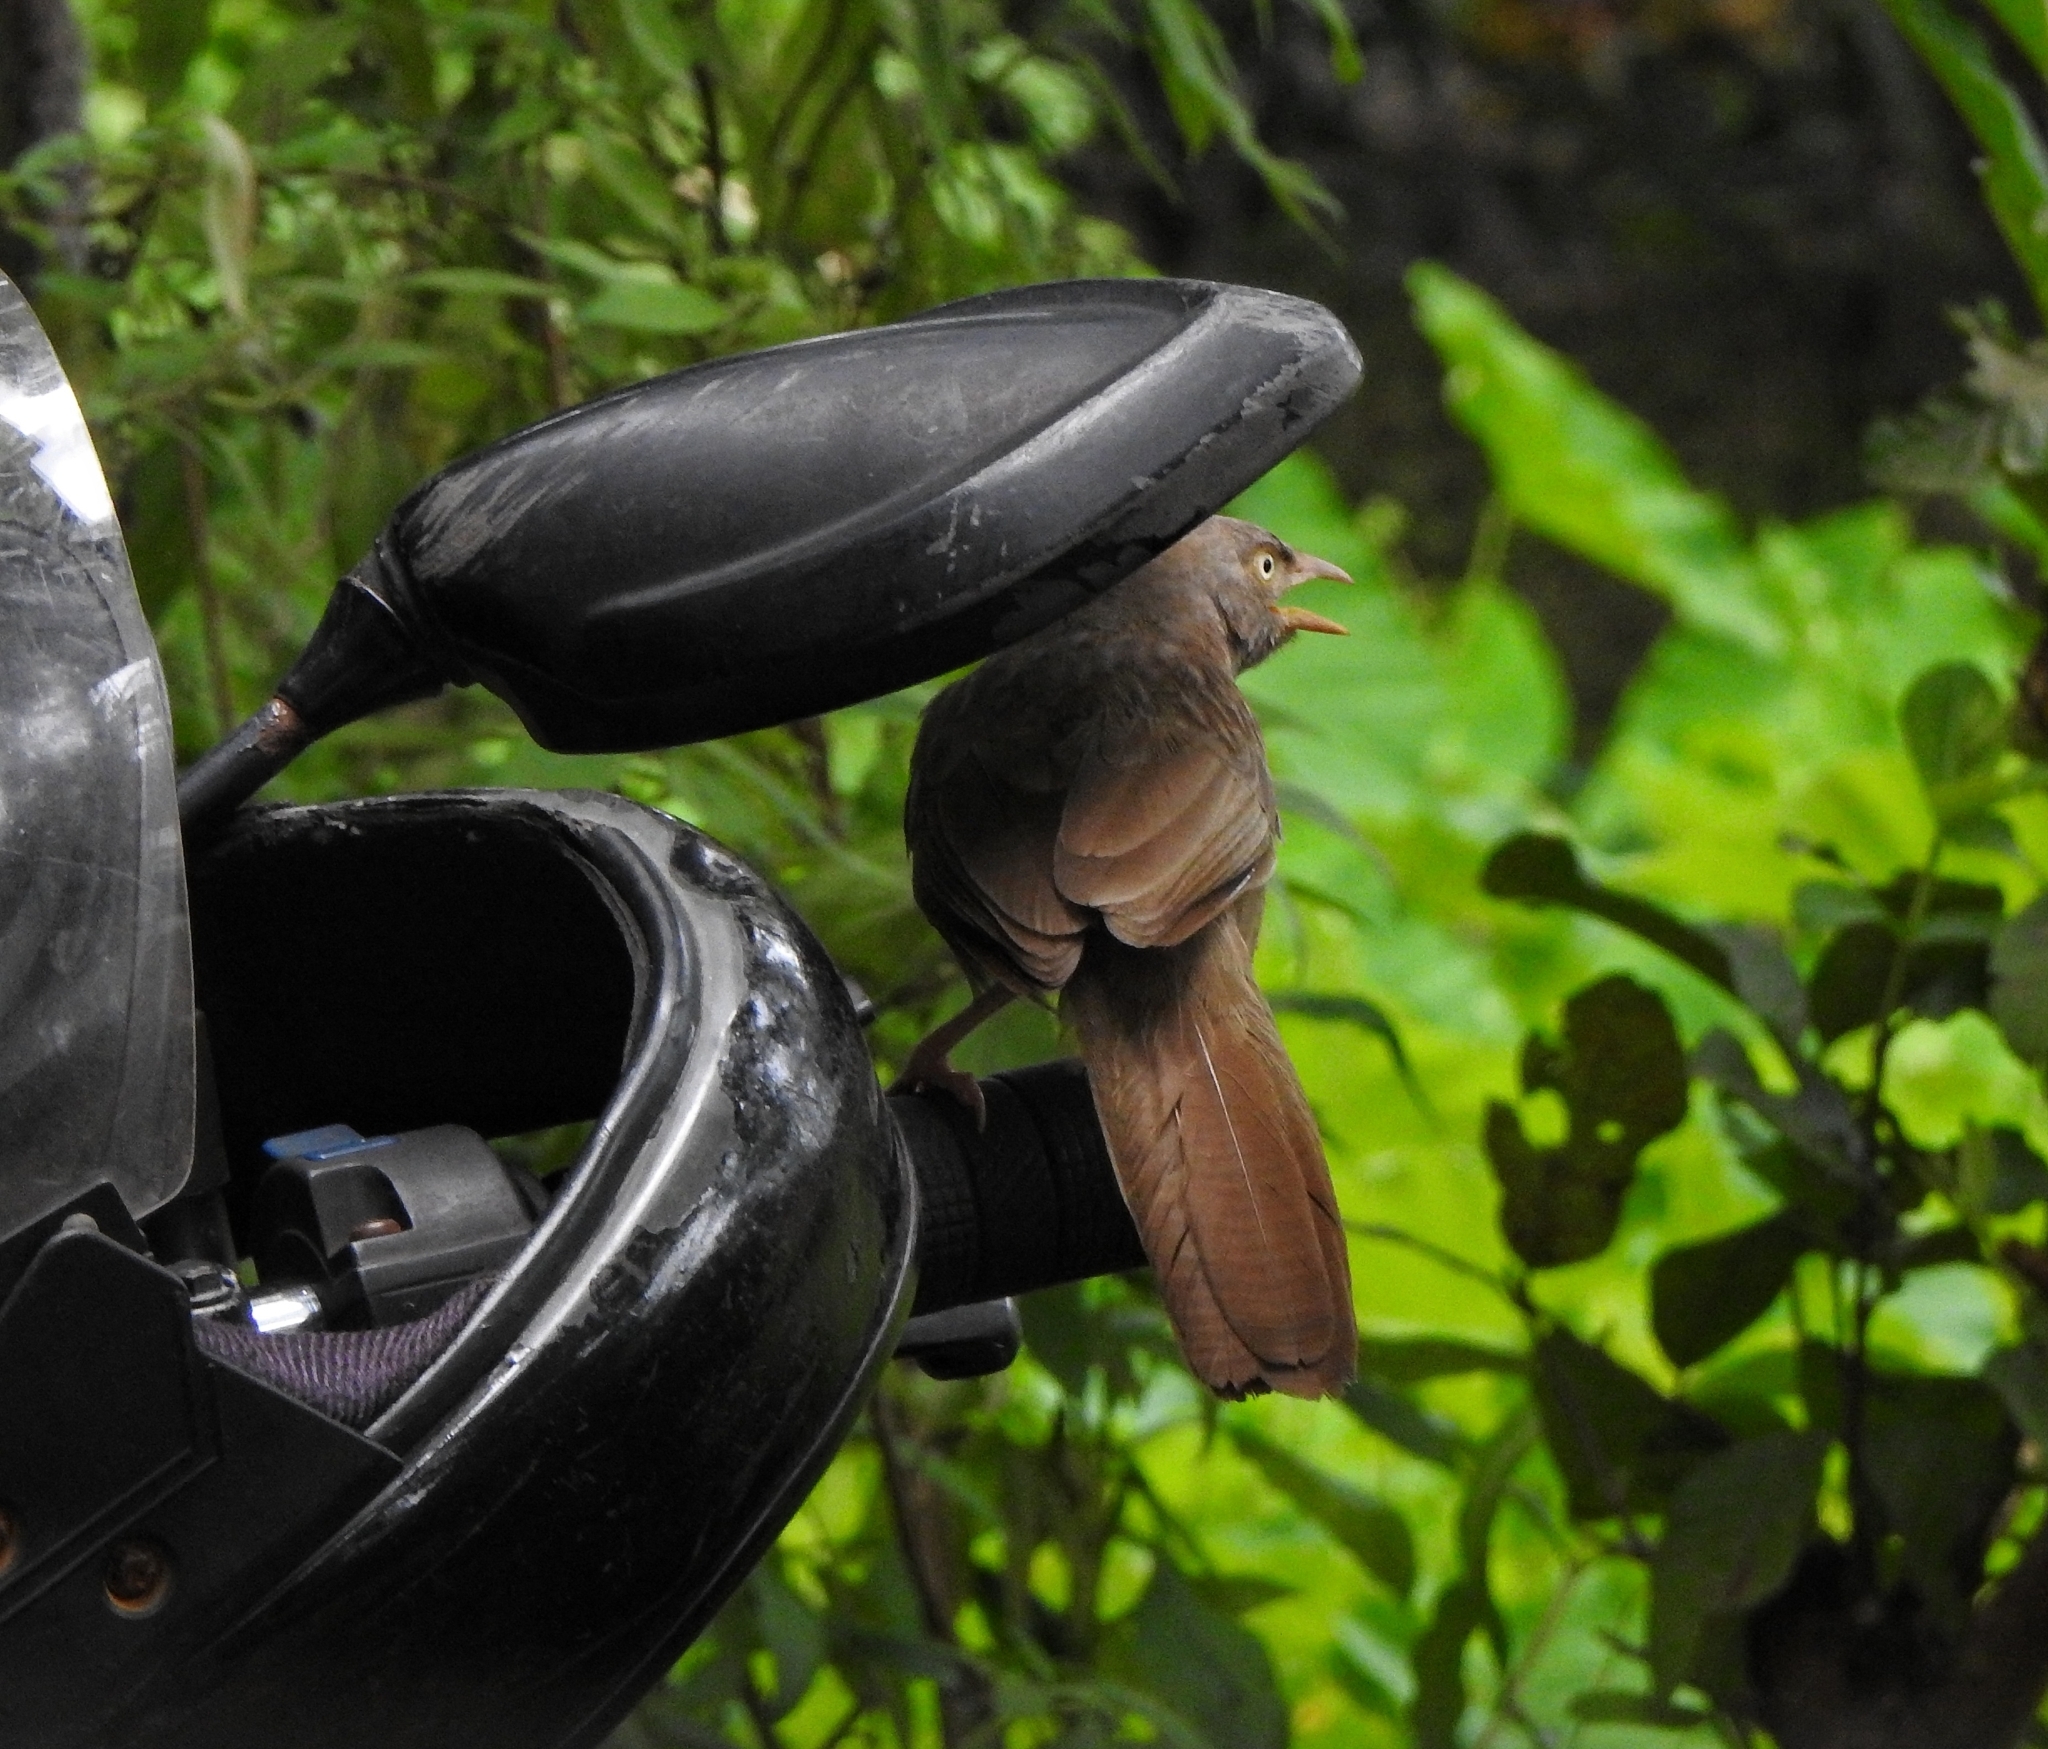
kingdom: Animalia
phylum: Chordata
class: Aves
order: Passeriformes
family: Leiothrichidae
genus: Turdoides
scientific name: Turdoides striata
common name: Jungle babbler
